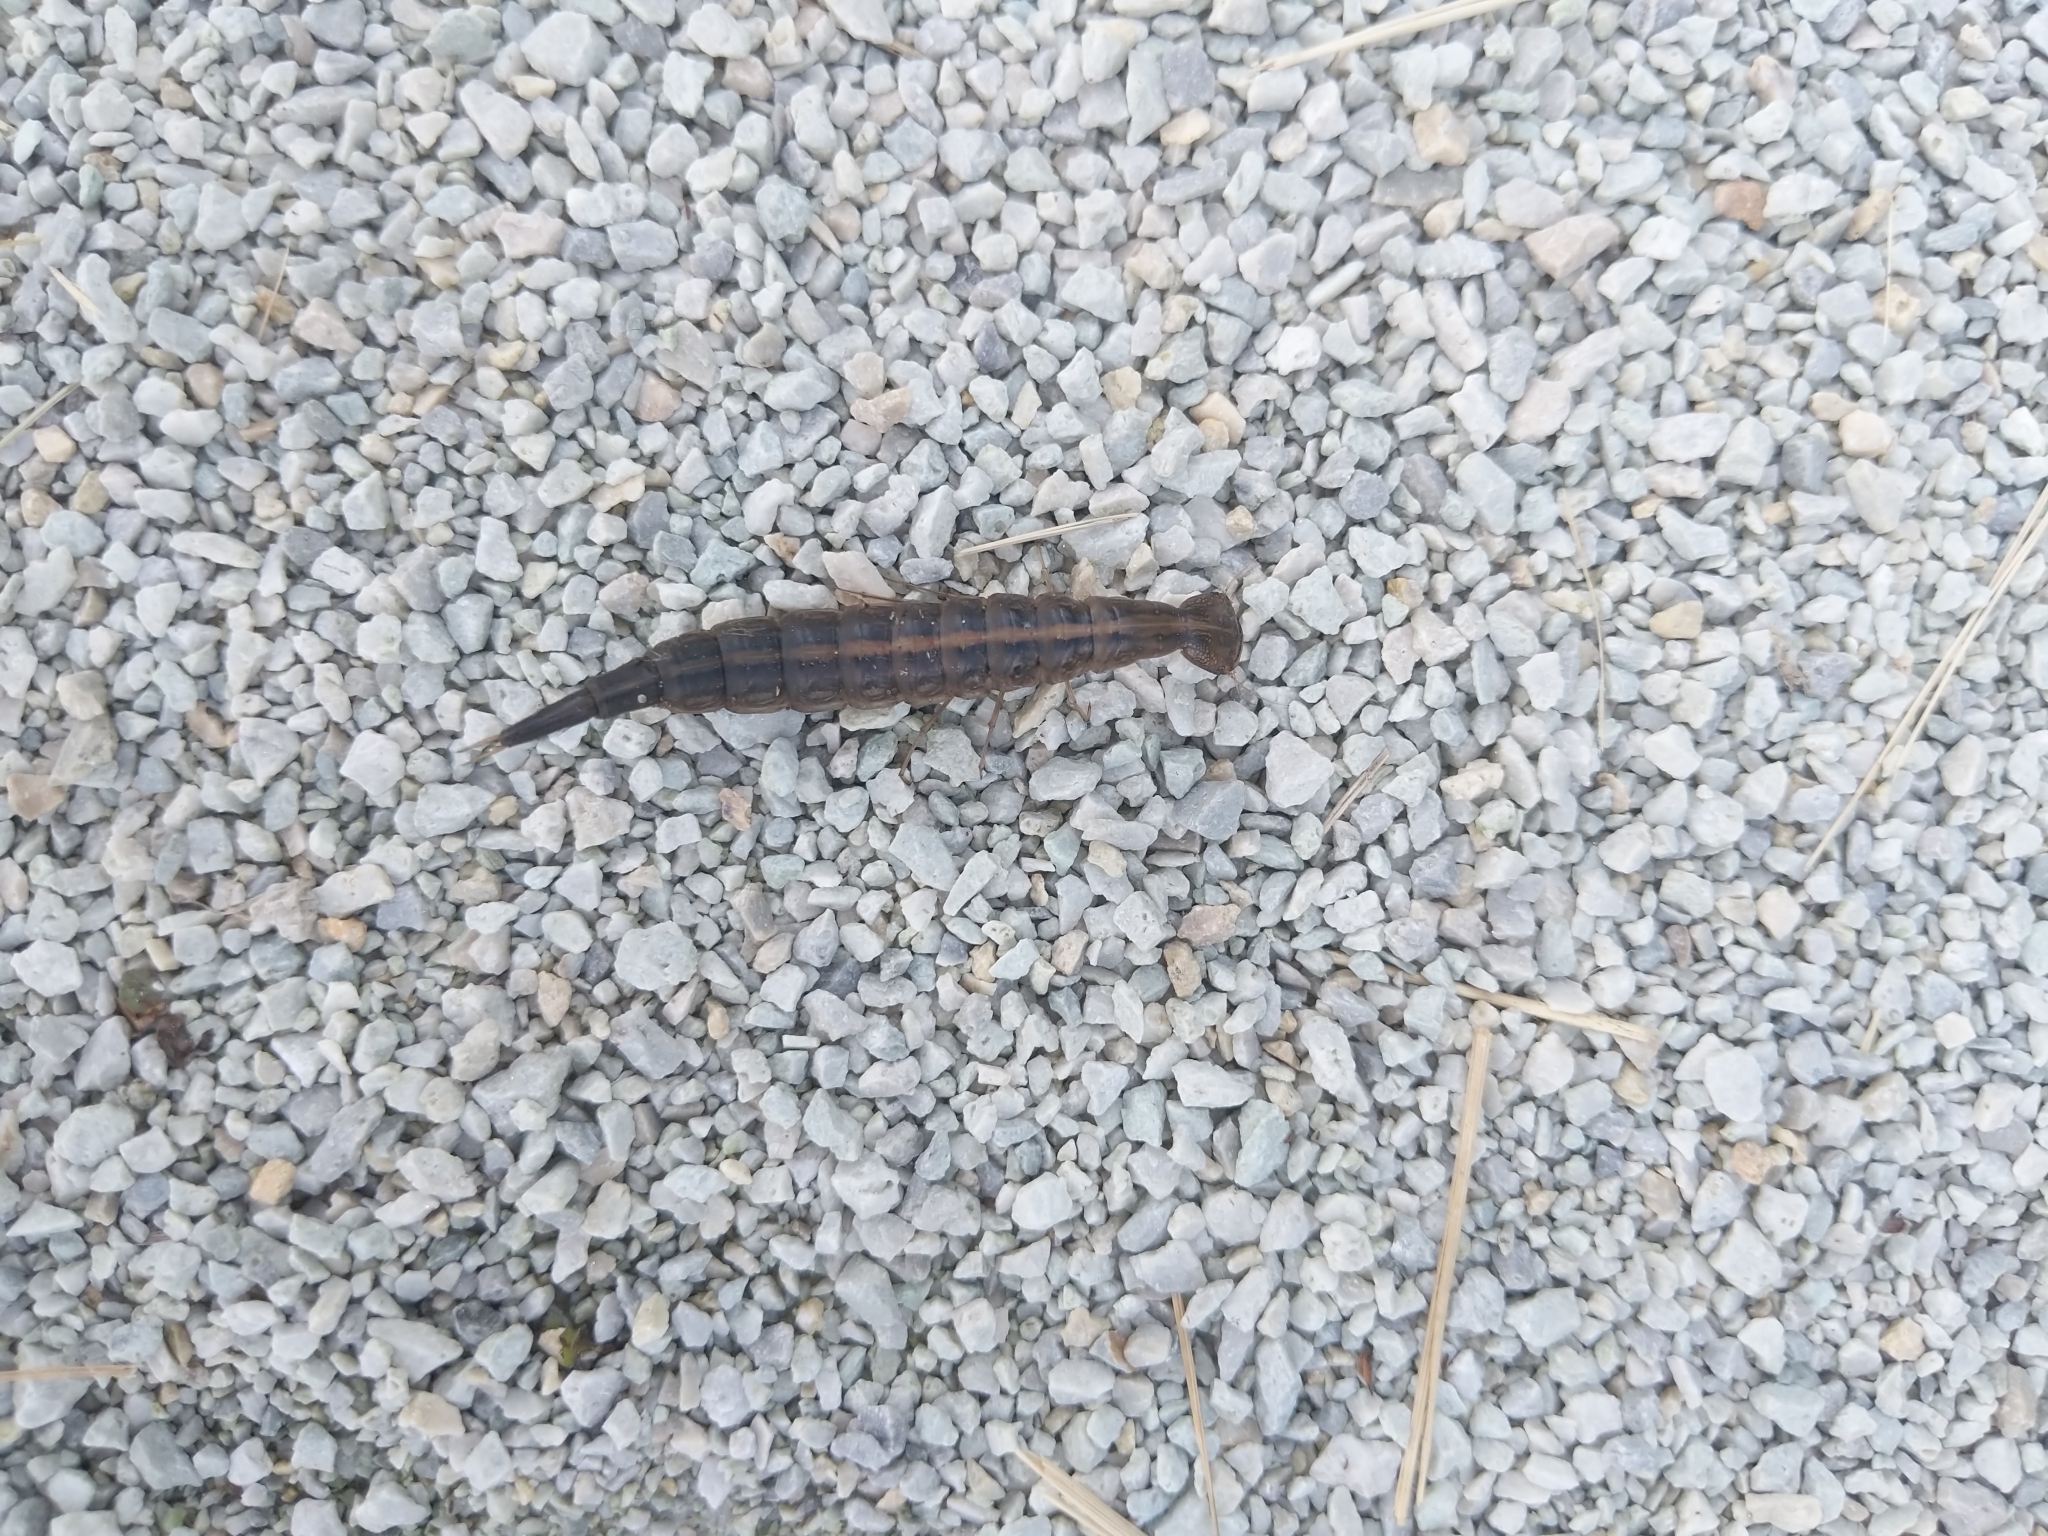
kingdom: Animalia
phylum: Arthropoda
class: Insecta
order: Coleoptera
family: Dytiscidae
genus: Dytiscus
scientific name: Dytiscus
